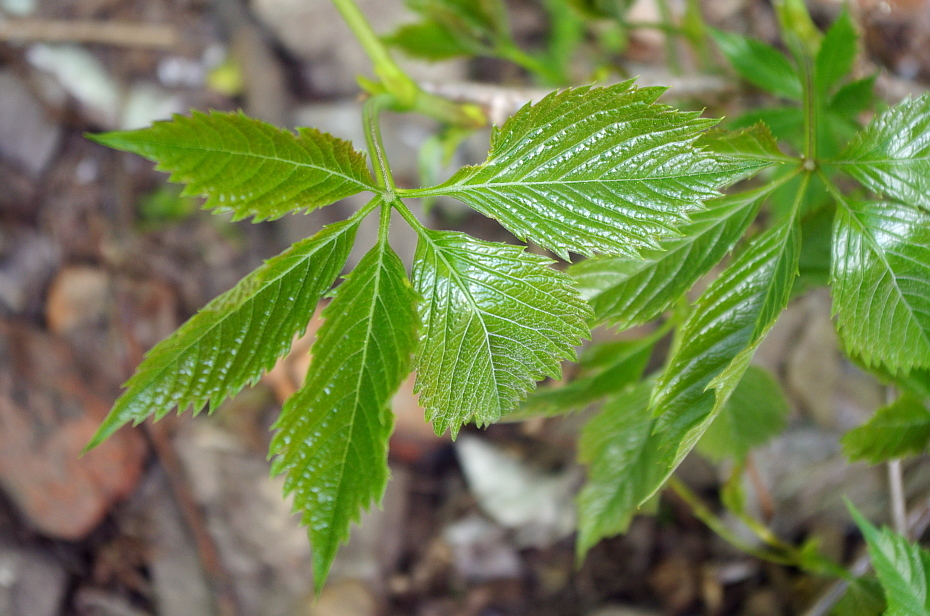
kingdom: Plantae
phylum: Tracheophyta
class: Magnoliopsida
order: Vitales
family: Vitaceae
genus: Parthenocissus
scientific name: Parthenocissus inserta
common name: False virginia-creeper
